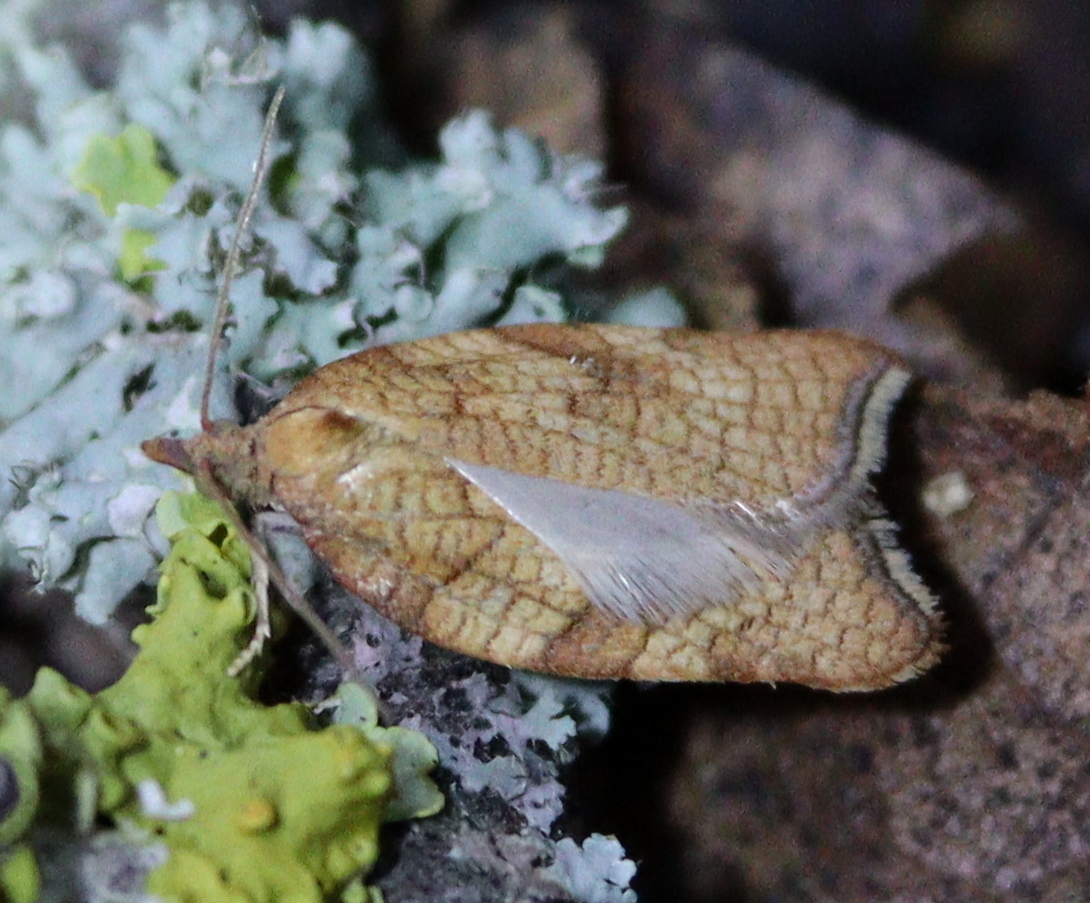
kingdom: Animalia
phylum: Arthropoda
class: Insecta
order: Lepidoptera
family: Tortricidae
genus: Acleris
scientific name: Acleris rhombana
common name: Tortricid moth
